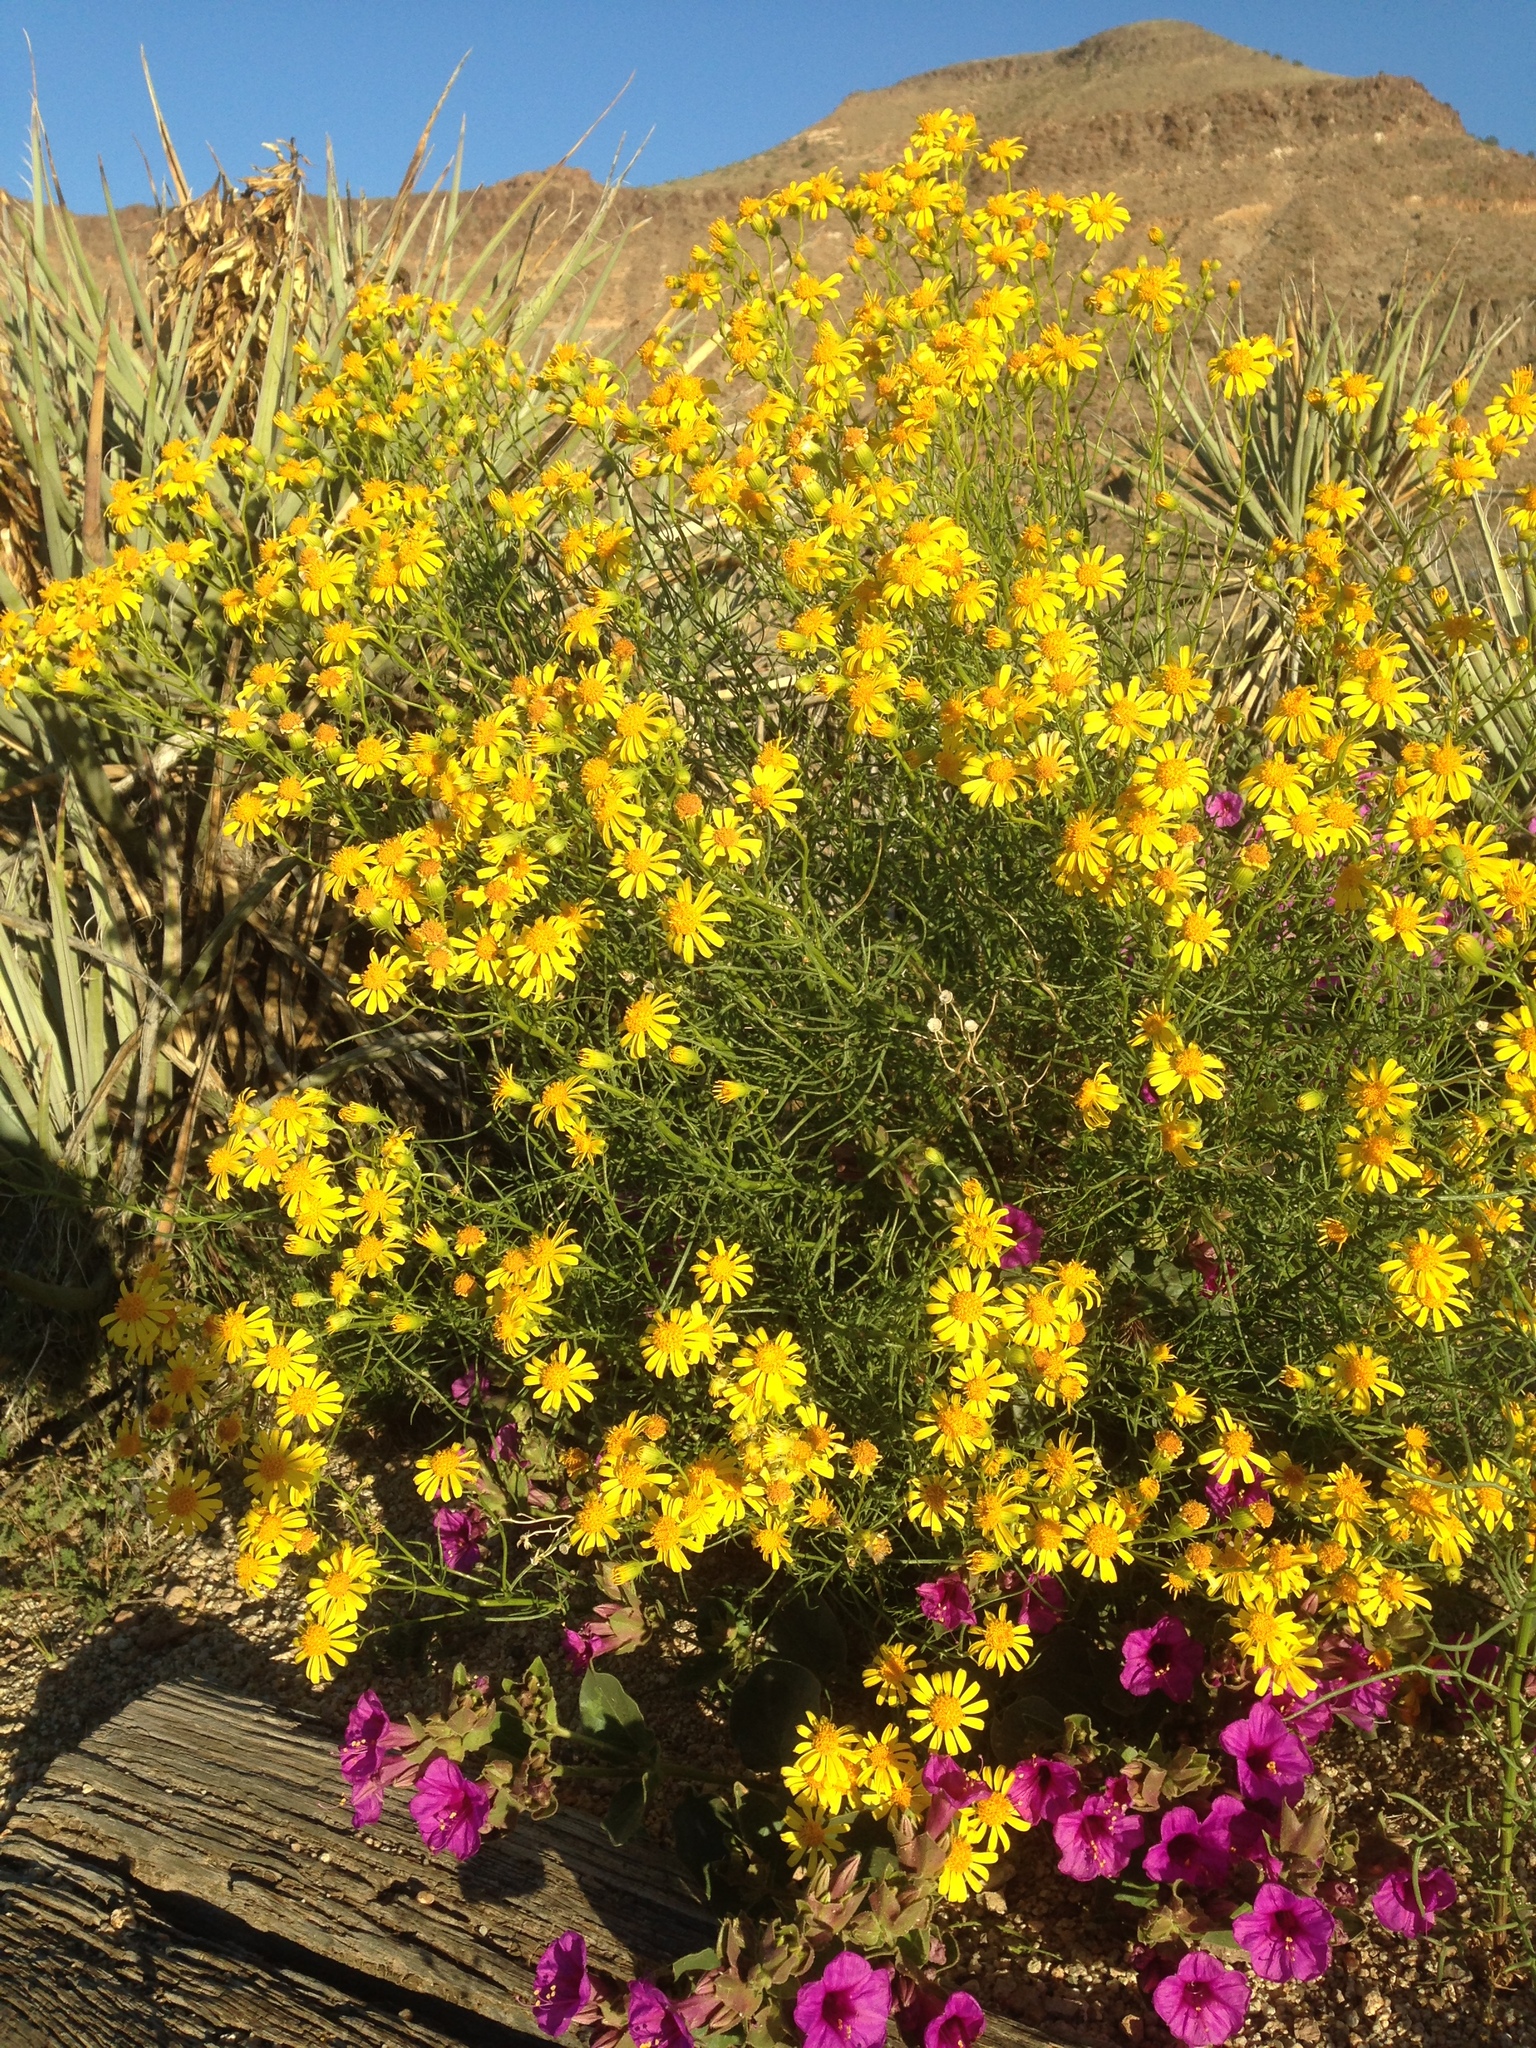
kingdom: Plantae
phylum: Tracheophyta
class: Magnoliopsida
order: Asterales
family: Asteraceae
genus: Senecio
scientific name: Senecio flaccidus
